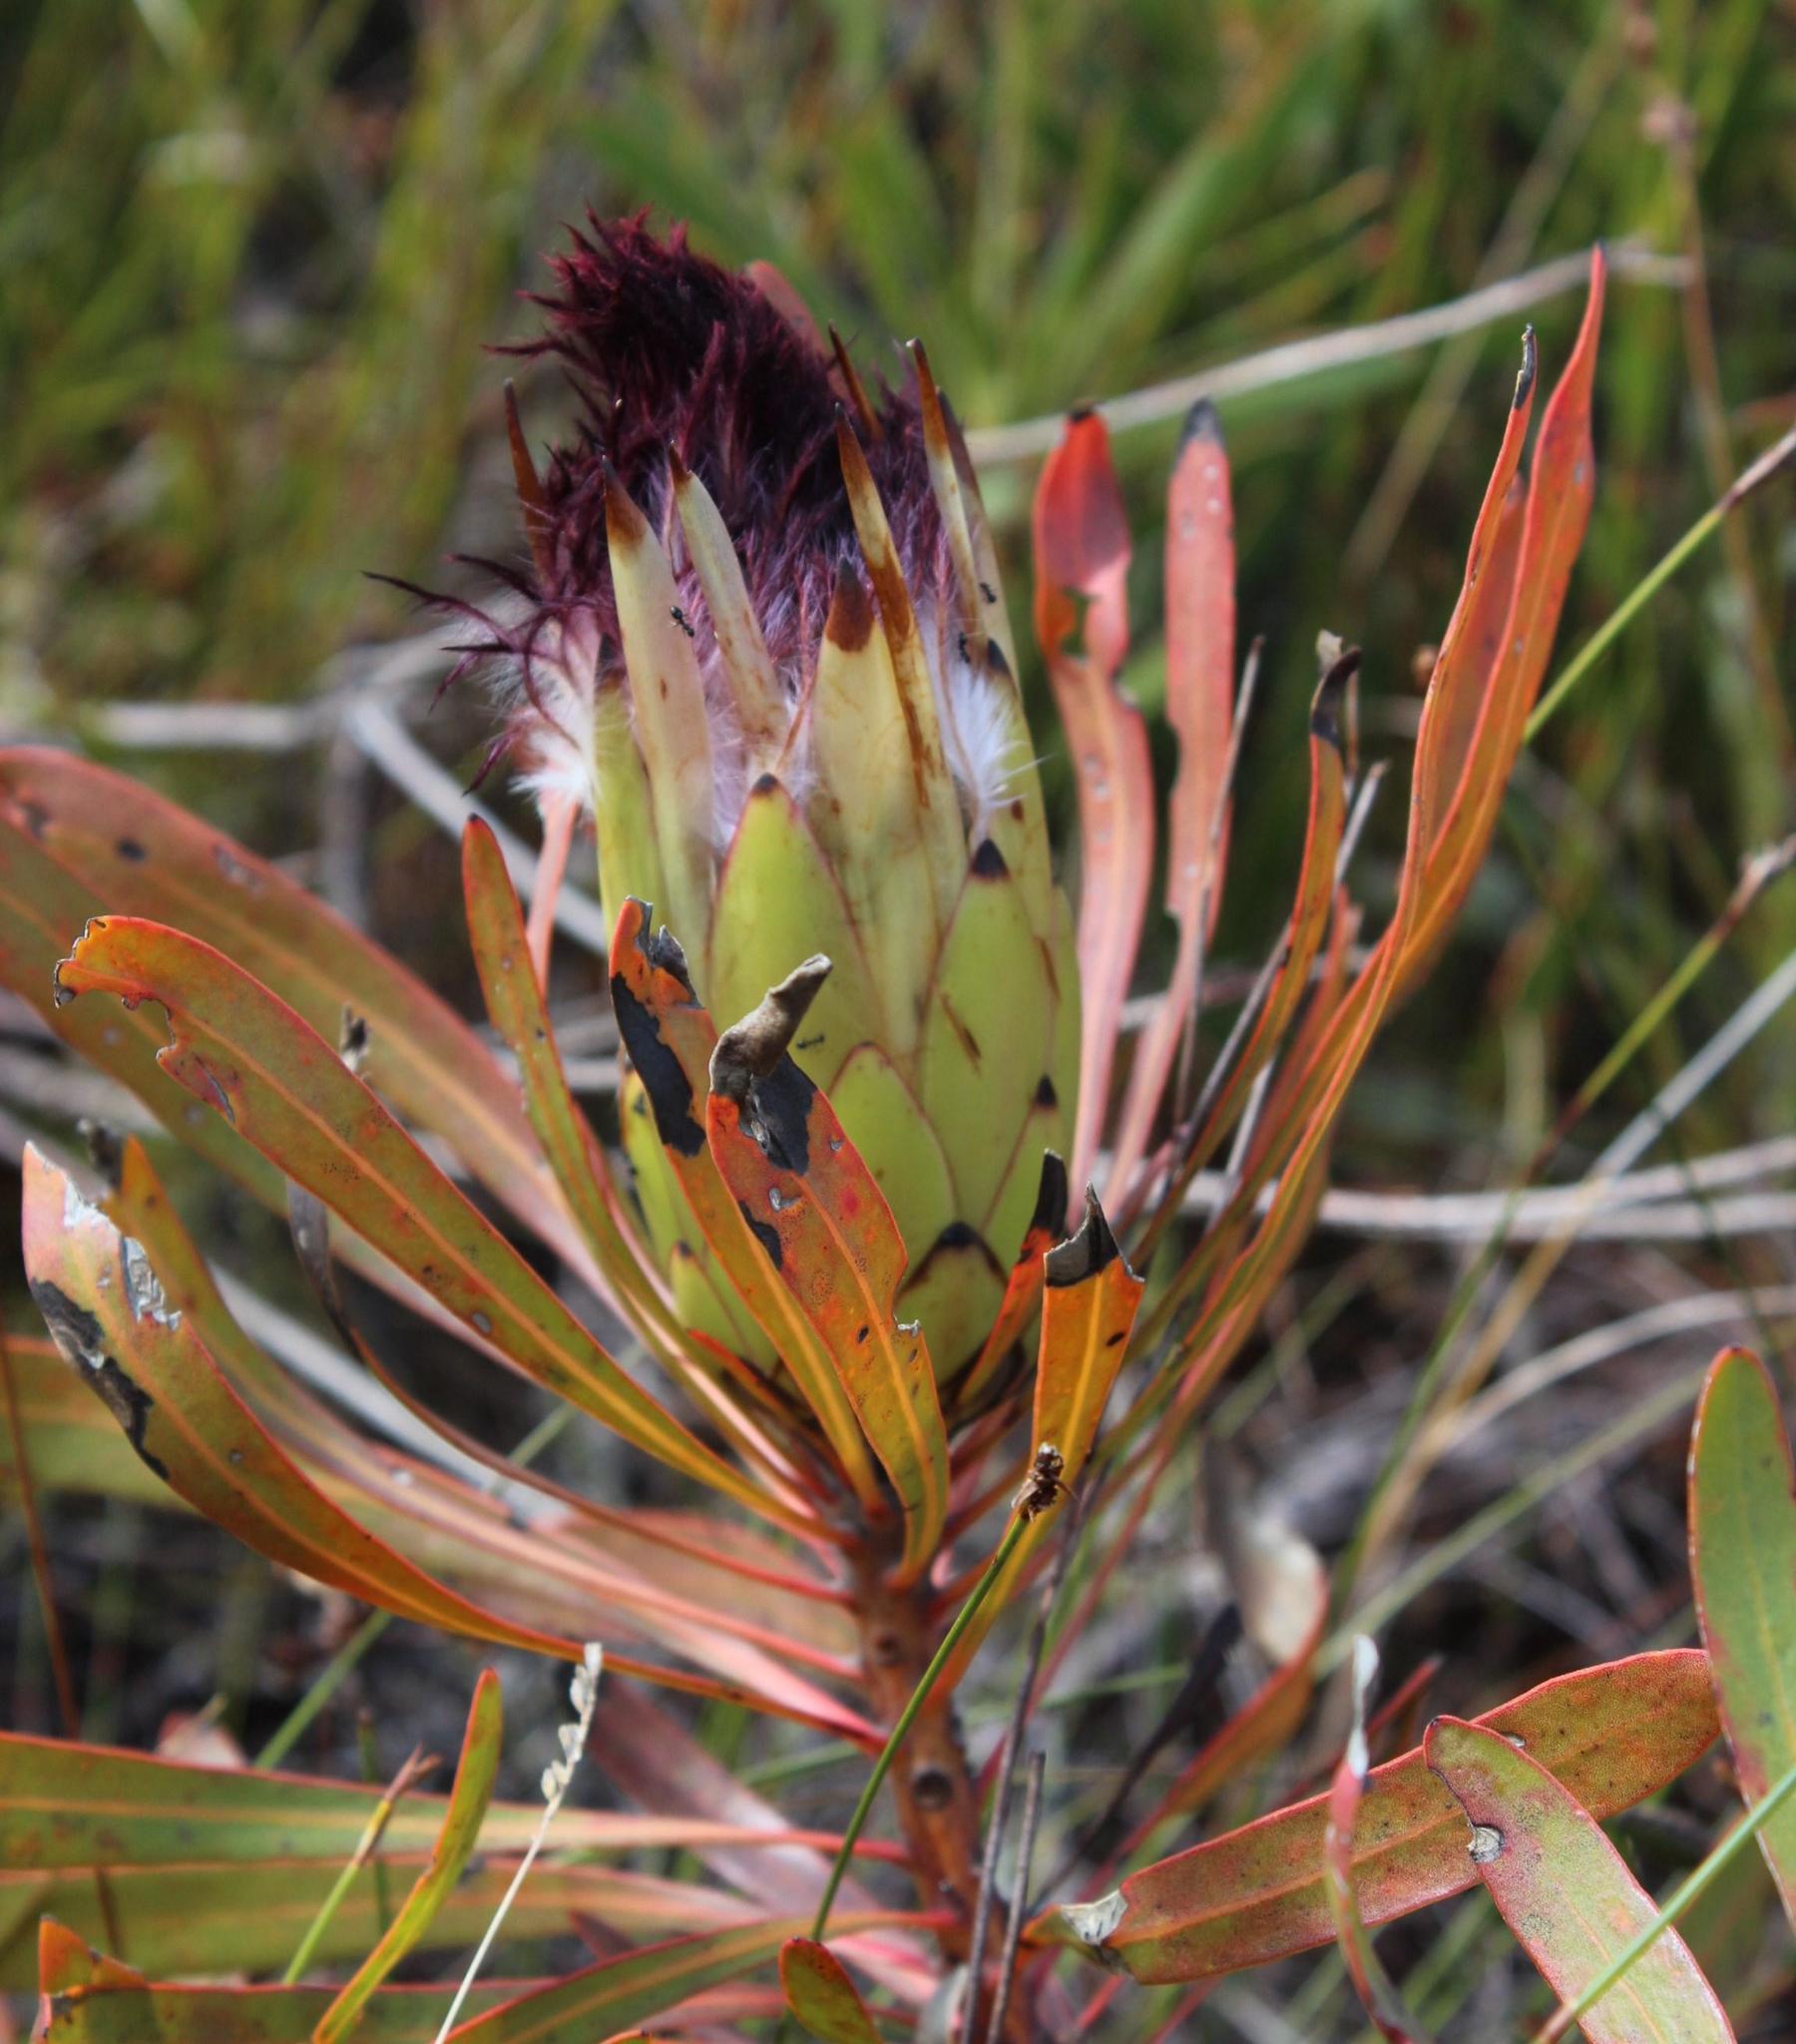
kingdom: Plantae
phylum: Tracheophyta
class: Magnoliopsida
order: Proteales
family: Proteaceae
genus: Protea
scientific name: Protea longifolia
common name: Long-leaf sugarbush
